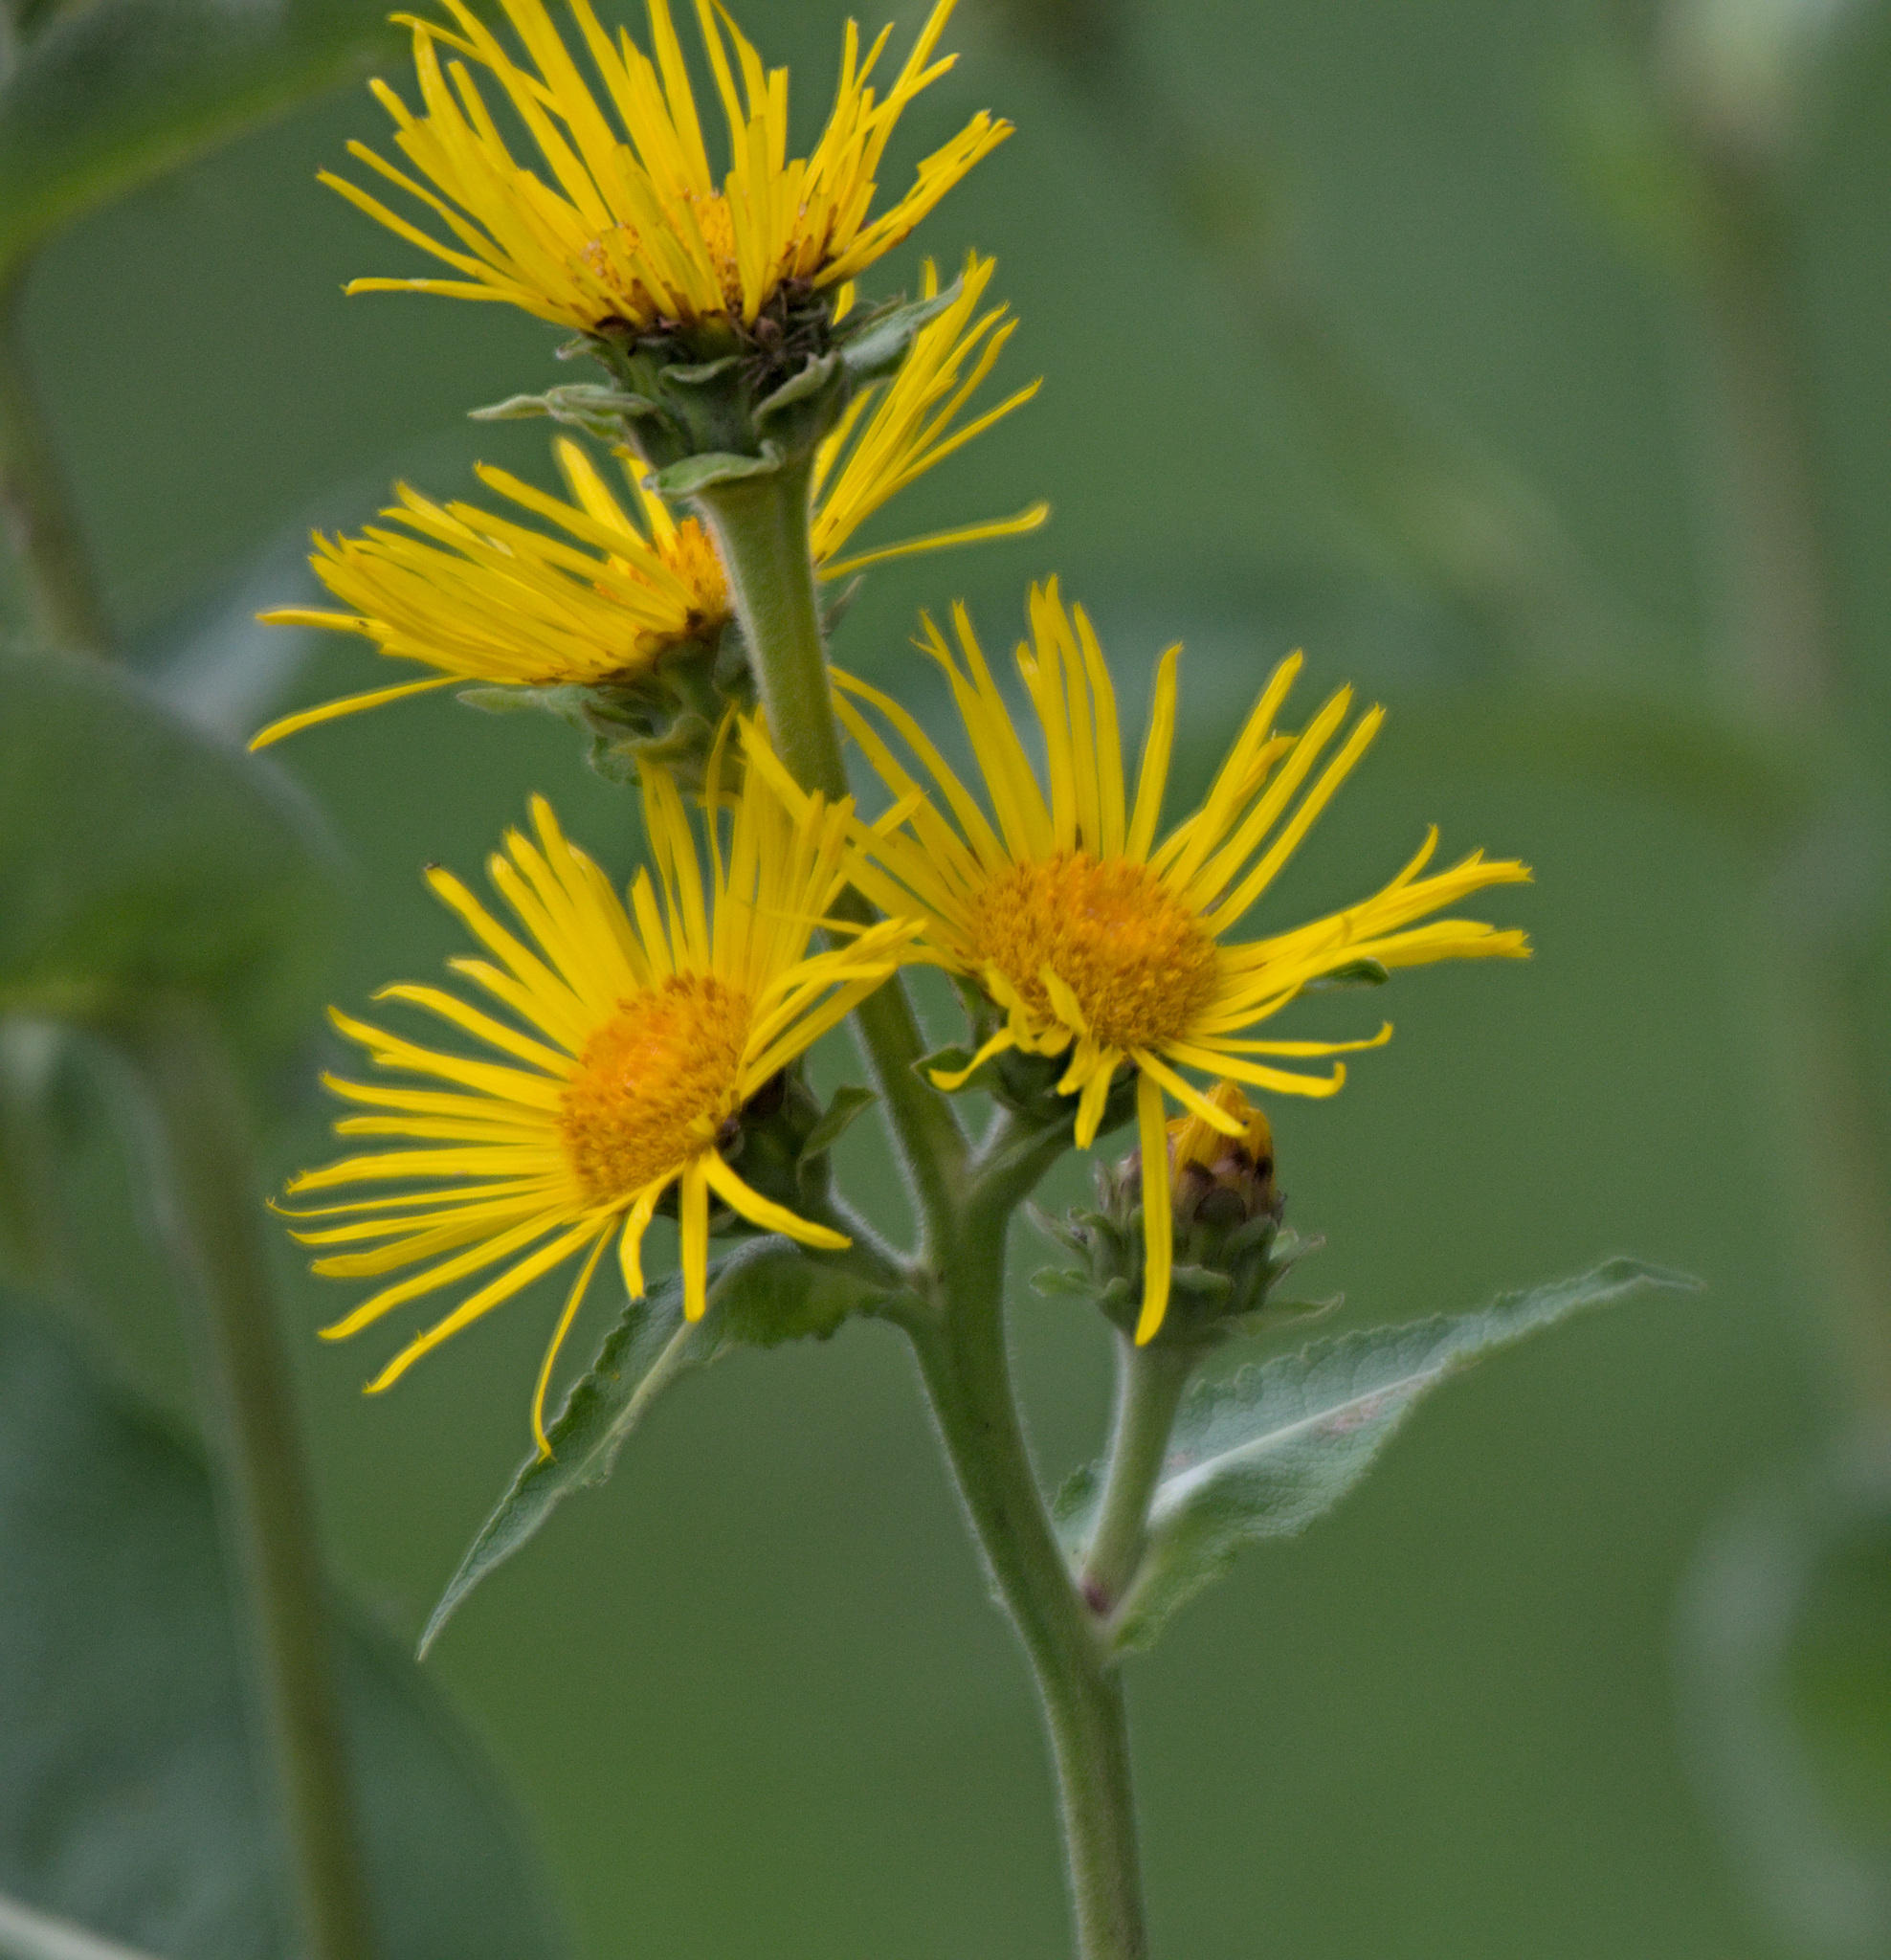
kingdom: Plantae
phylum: Tracheophyta
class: Magnoliopsida
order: Asterales
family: Asteraceae
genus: Inula
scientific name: Inula helenium
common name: Elecampane
